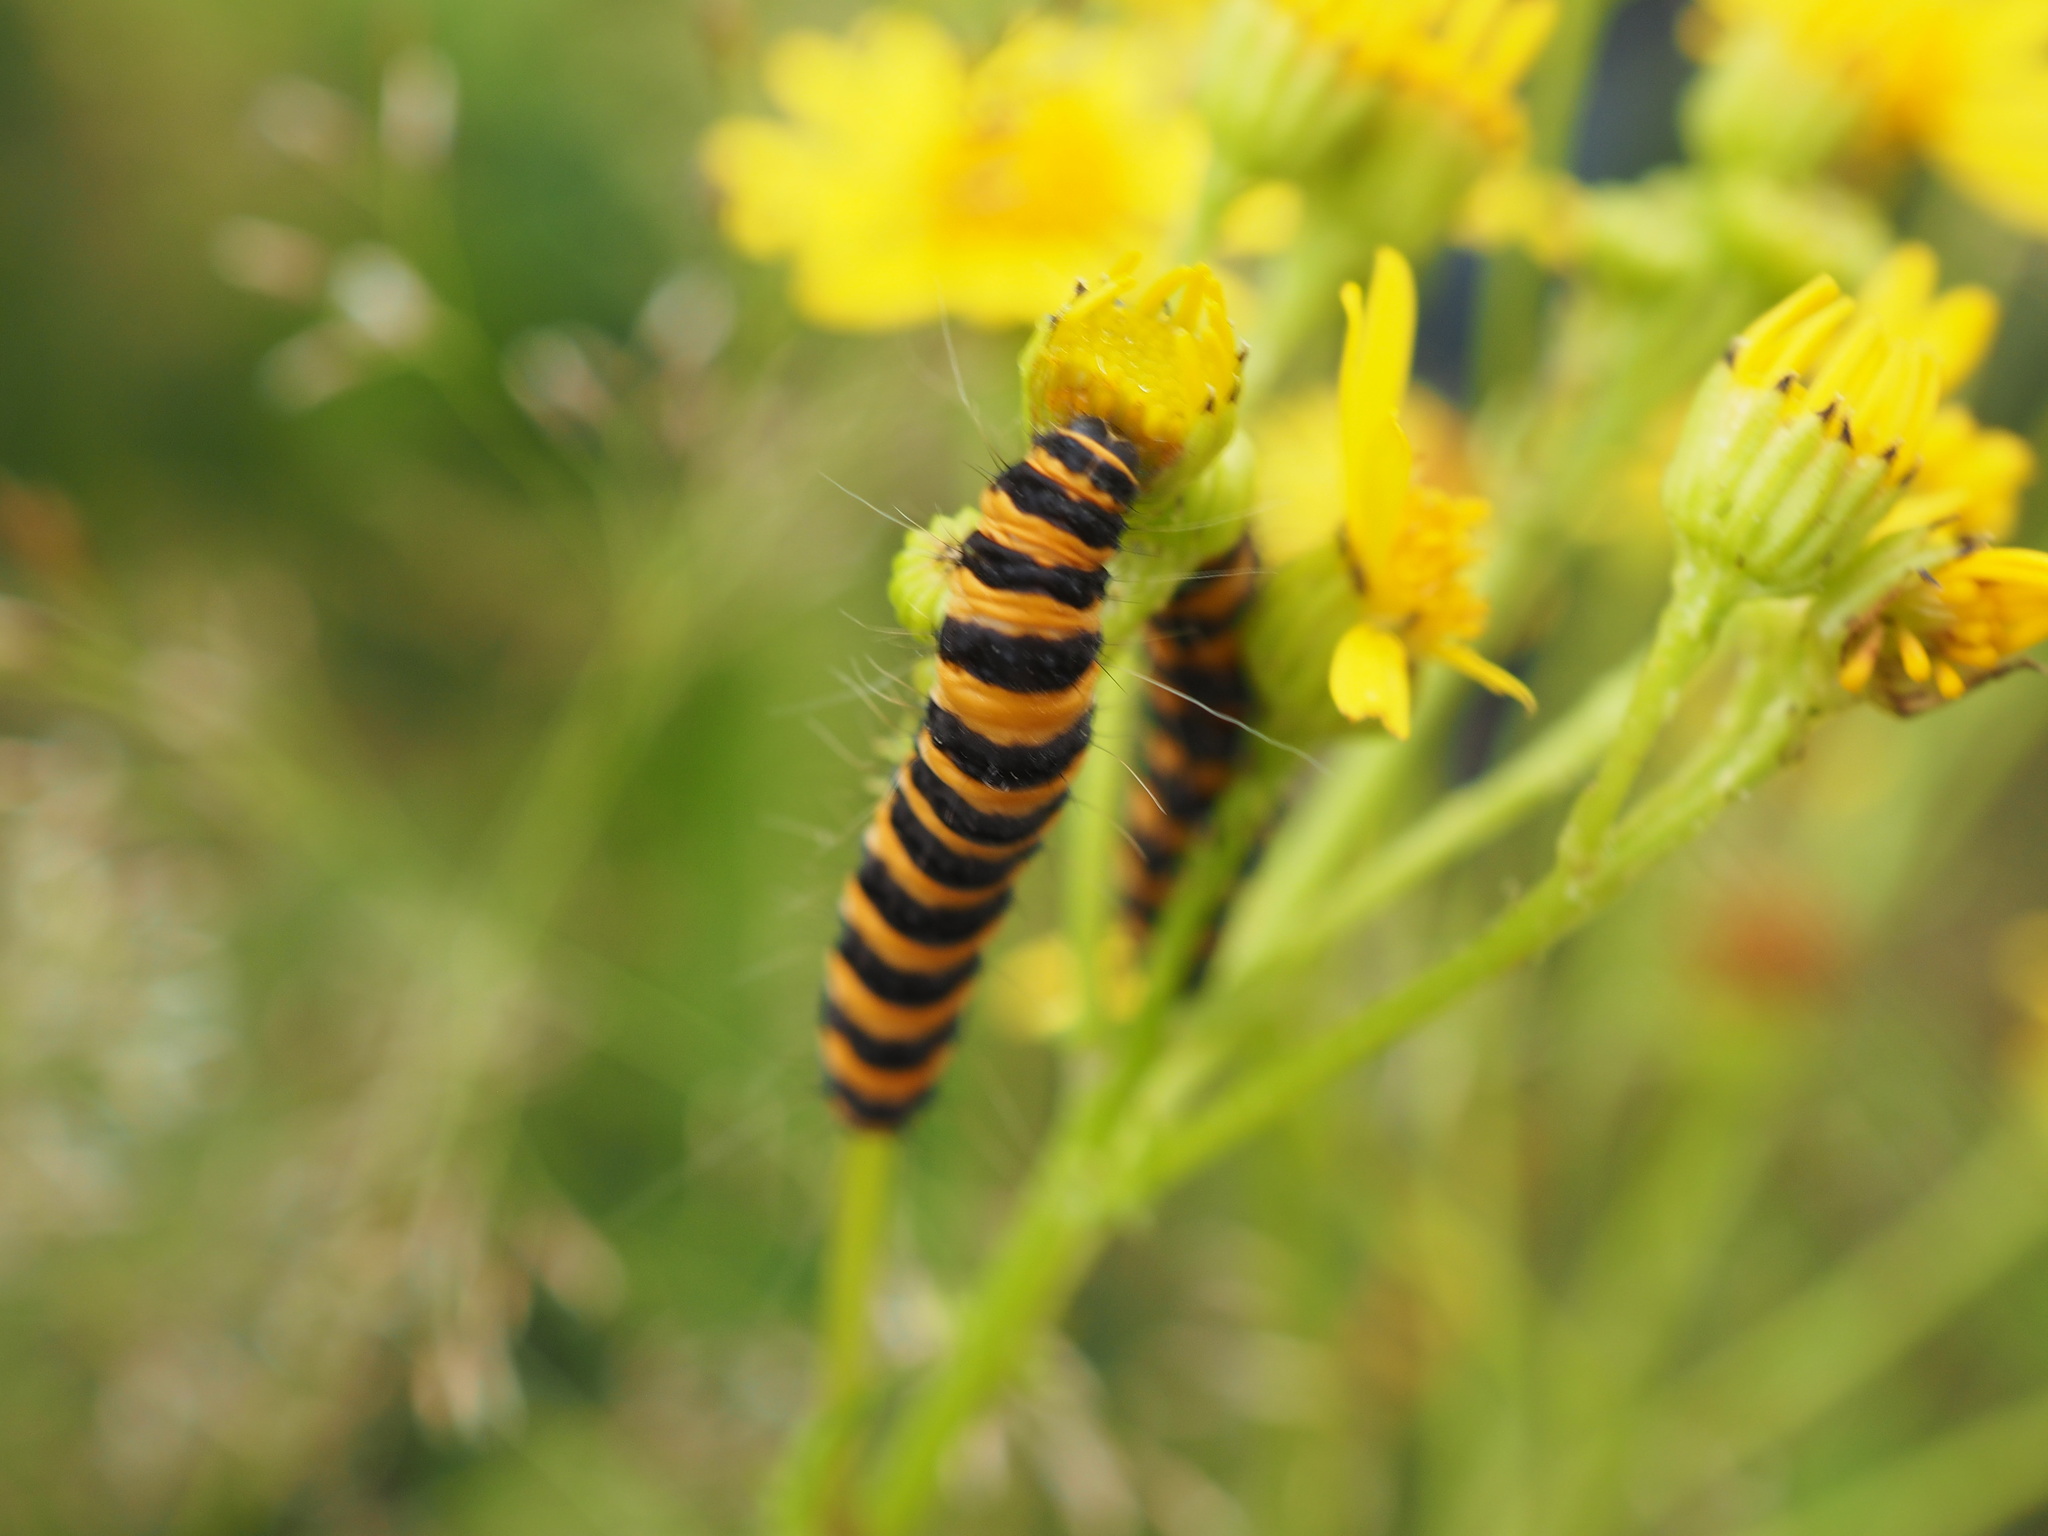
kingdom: Animalia
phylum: Arthropoda
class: Insecta
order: Lepidoptera
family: Erebidae
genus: Tyria
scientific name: Tyria jacobaeae
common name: Cinnabar
